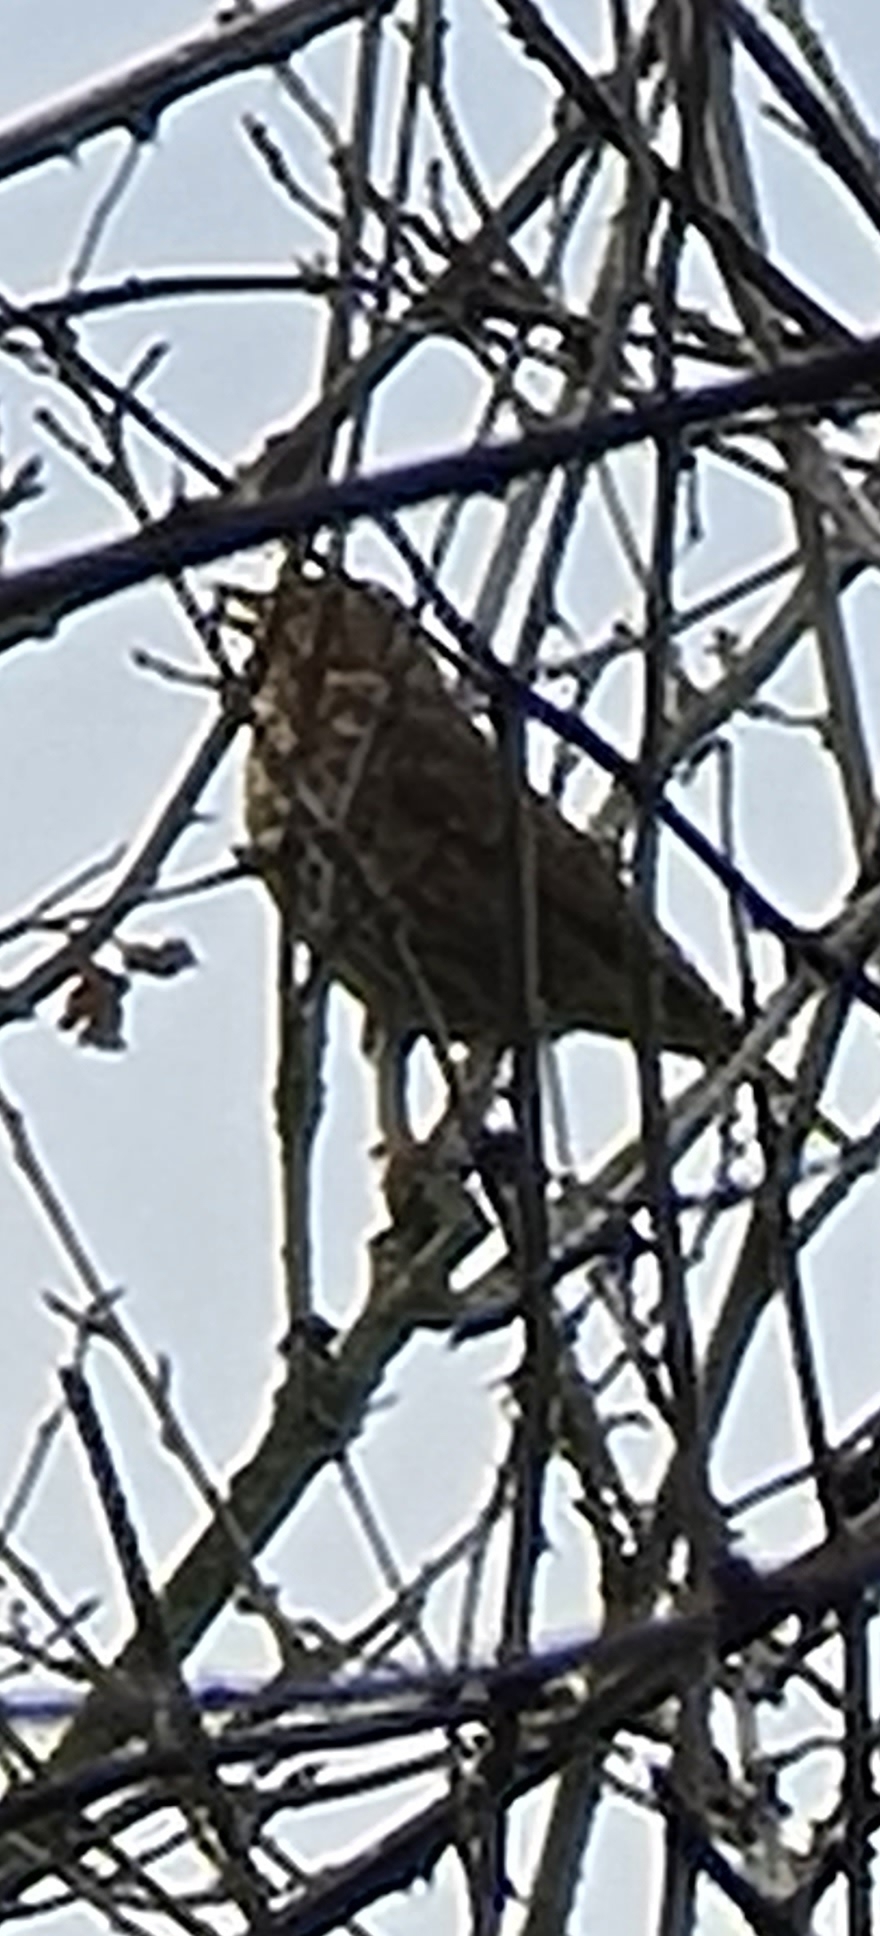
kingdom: Animalia
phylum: Chordata
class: Aves
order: Passeriformes
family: Turdidae
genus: Turdus
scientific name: Turdus philomelos
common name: Song thrush
